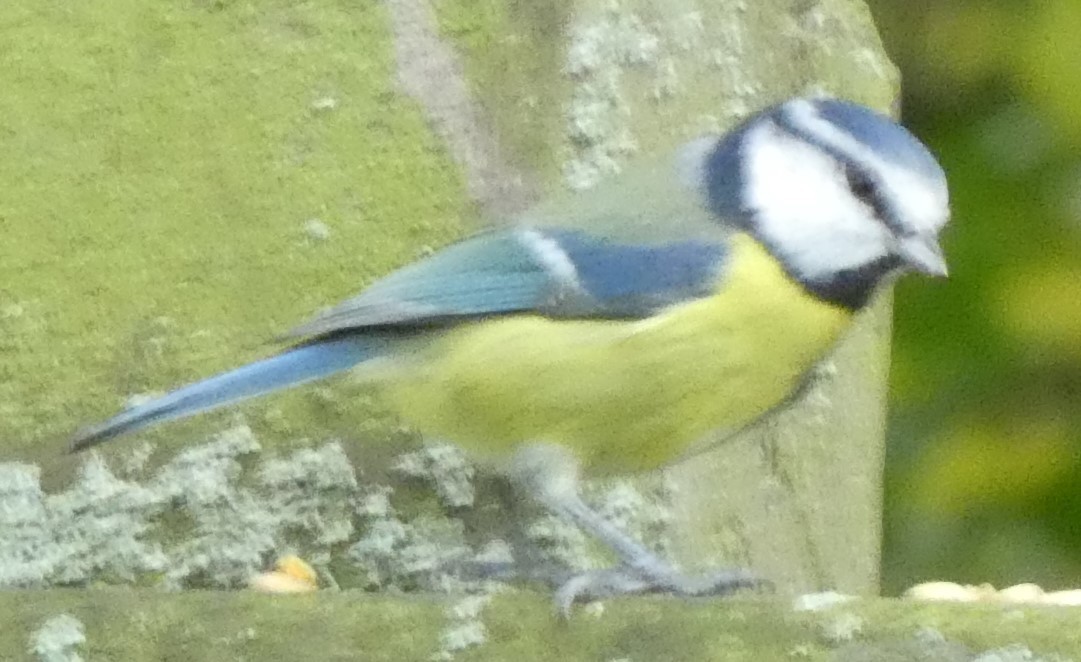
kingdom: Animalia
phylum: Chordata
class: Aves
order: Passeriformes
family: Paridae
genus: Cyanistes
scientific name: Cyanistes caeruleus
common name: Eurasian blue tit
